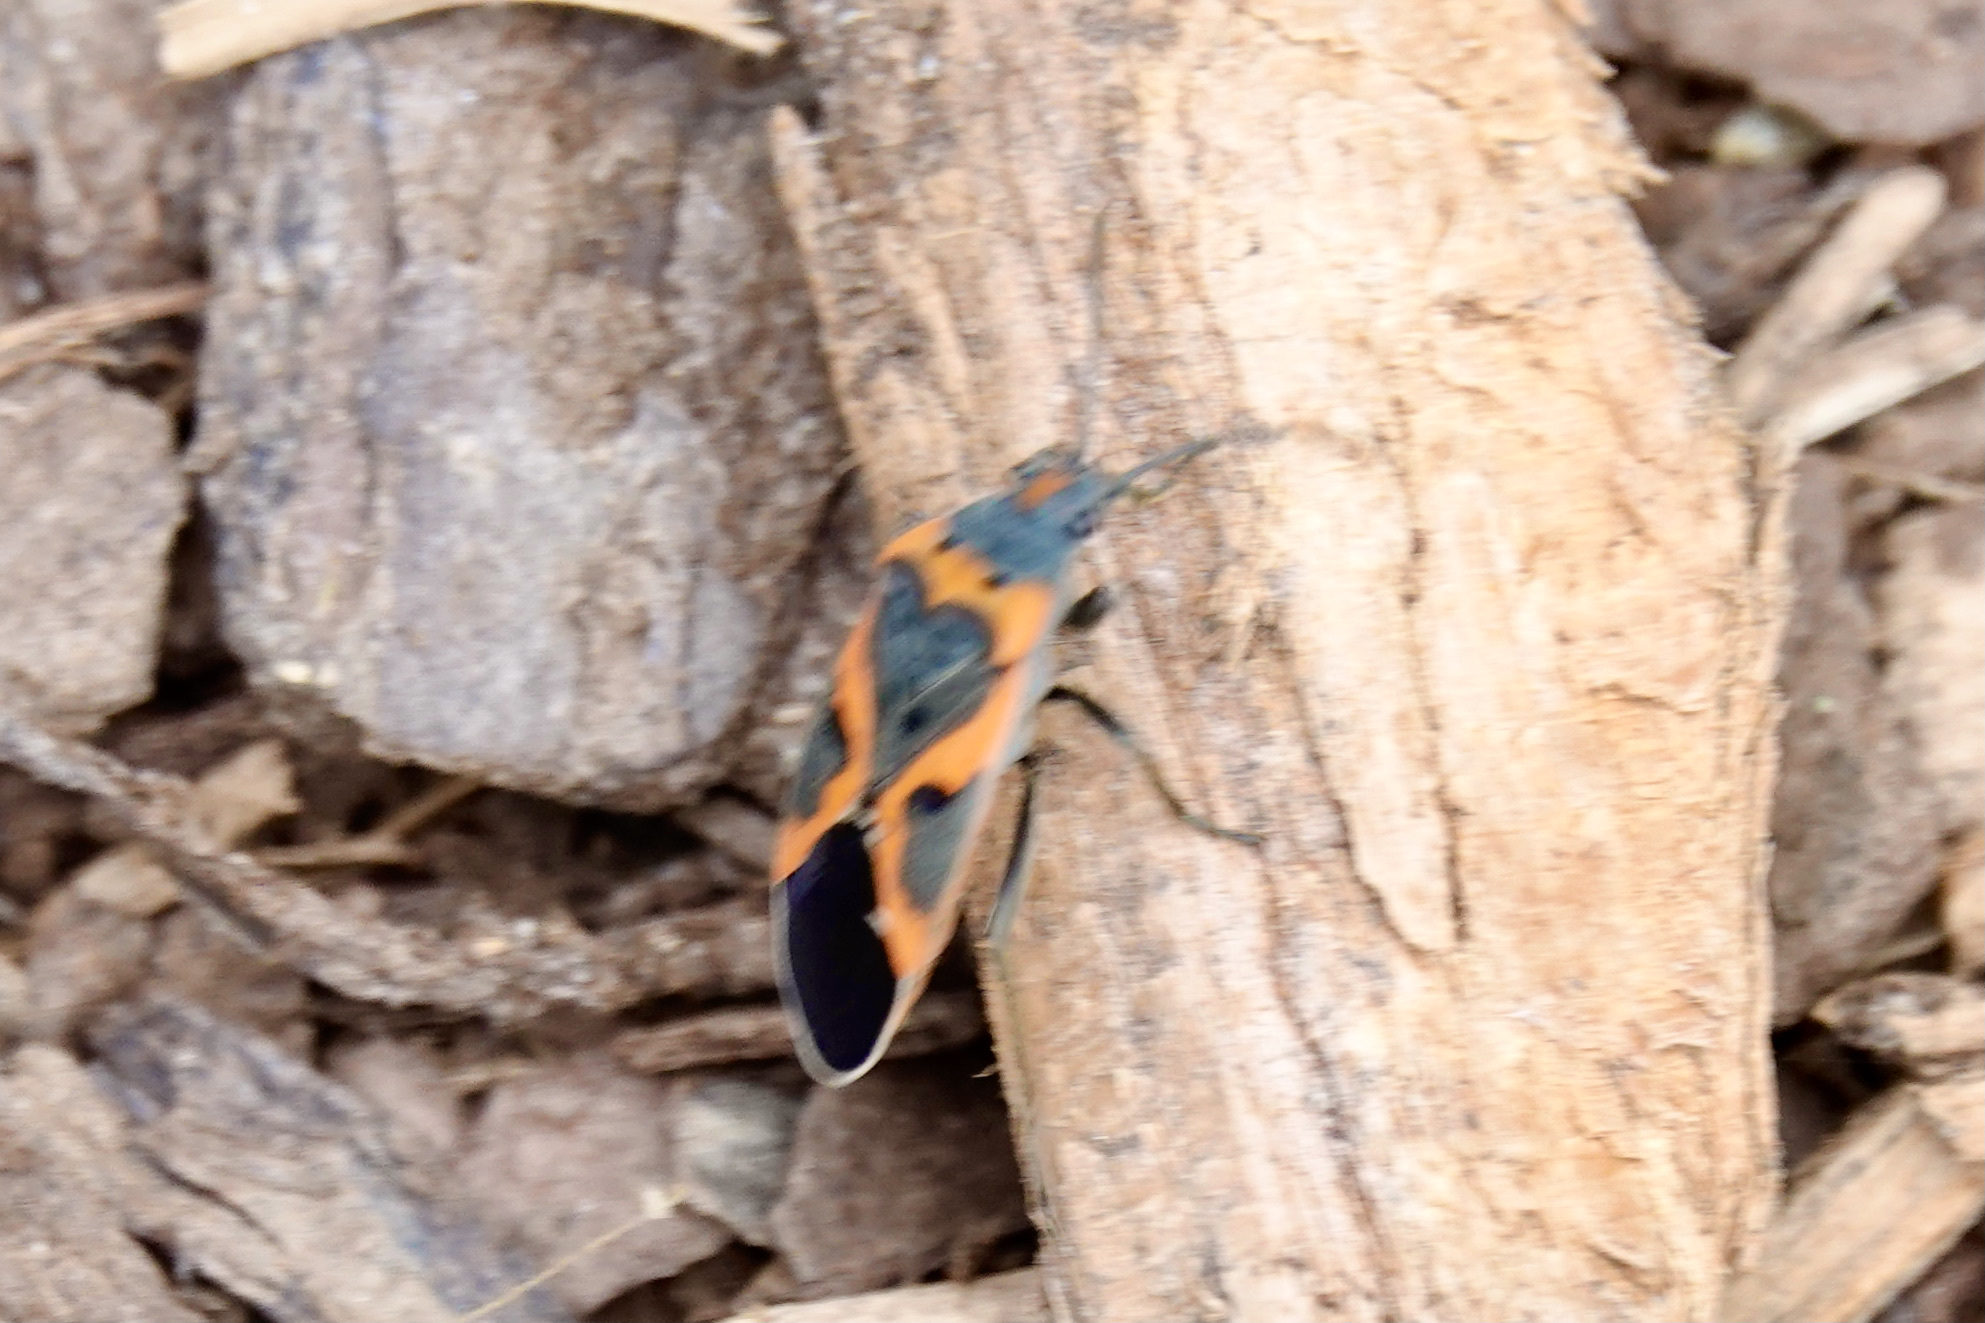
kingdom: Animalia
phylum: Arthropoda
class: Insecta
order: Hemiptera
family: Lygaeidae
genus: Lygaeus
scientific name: Lygaeus kalmii
